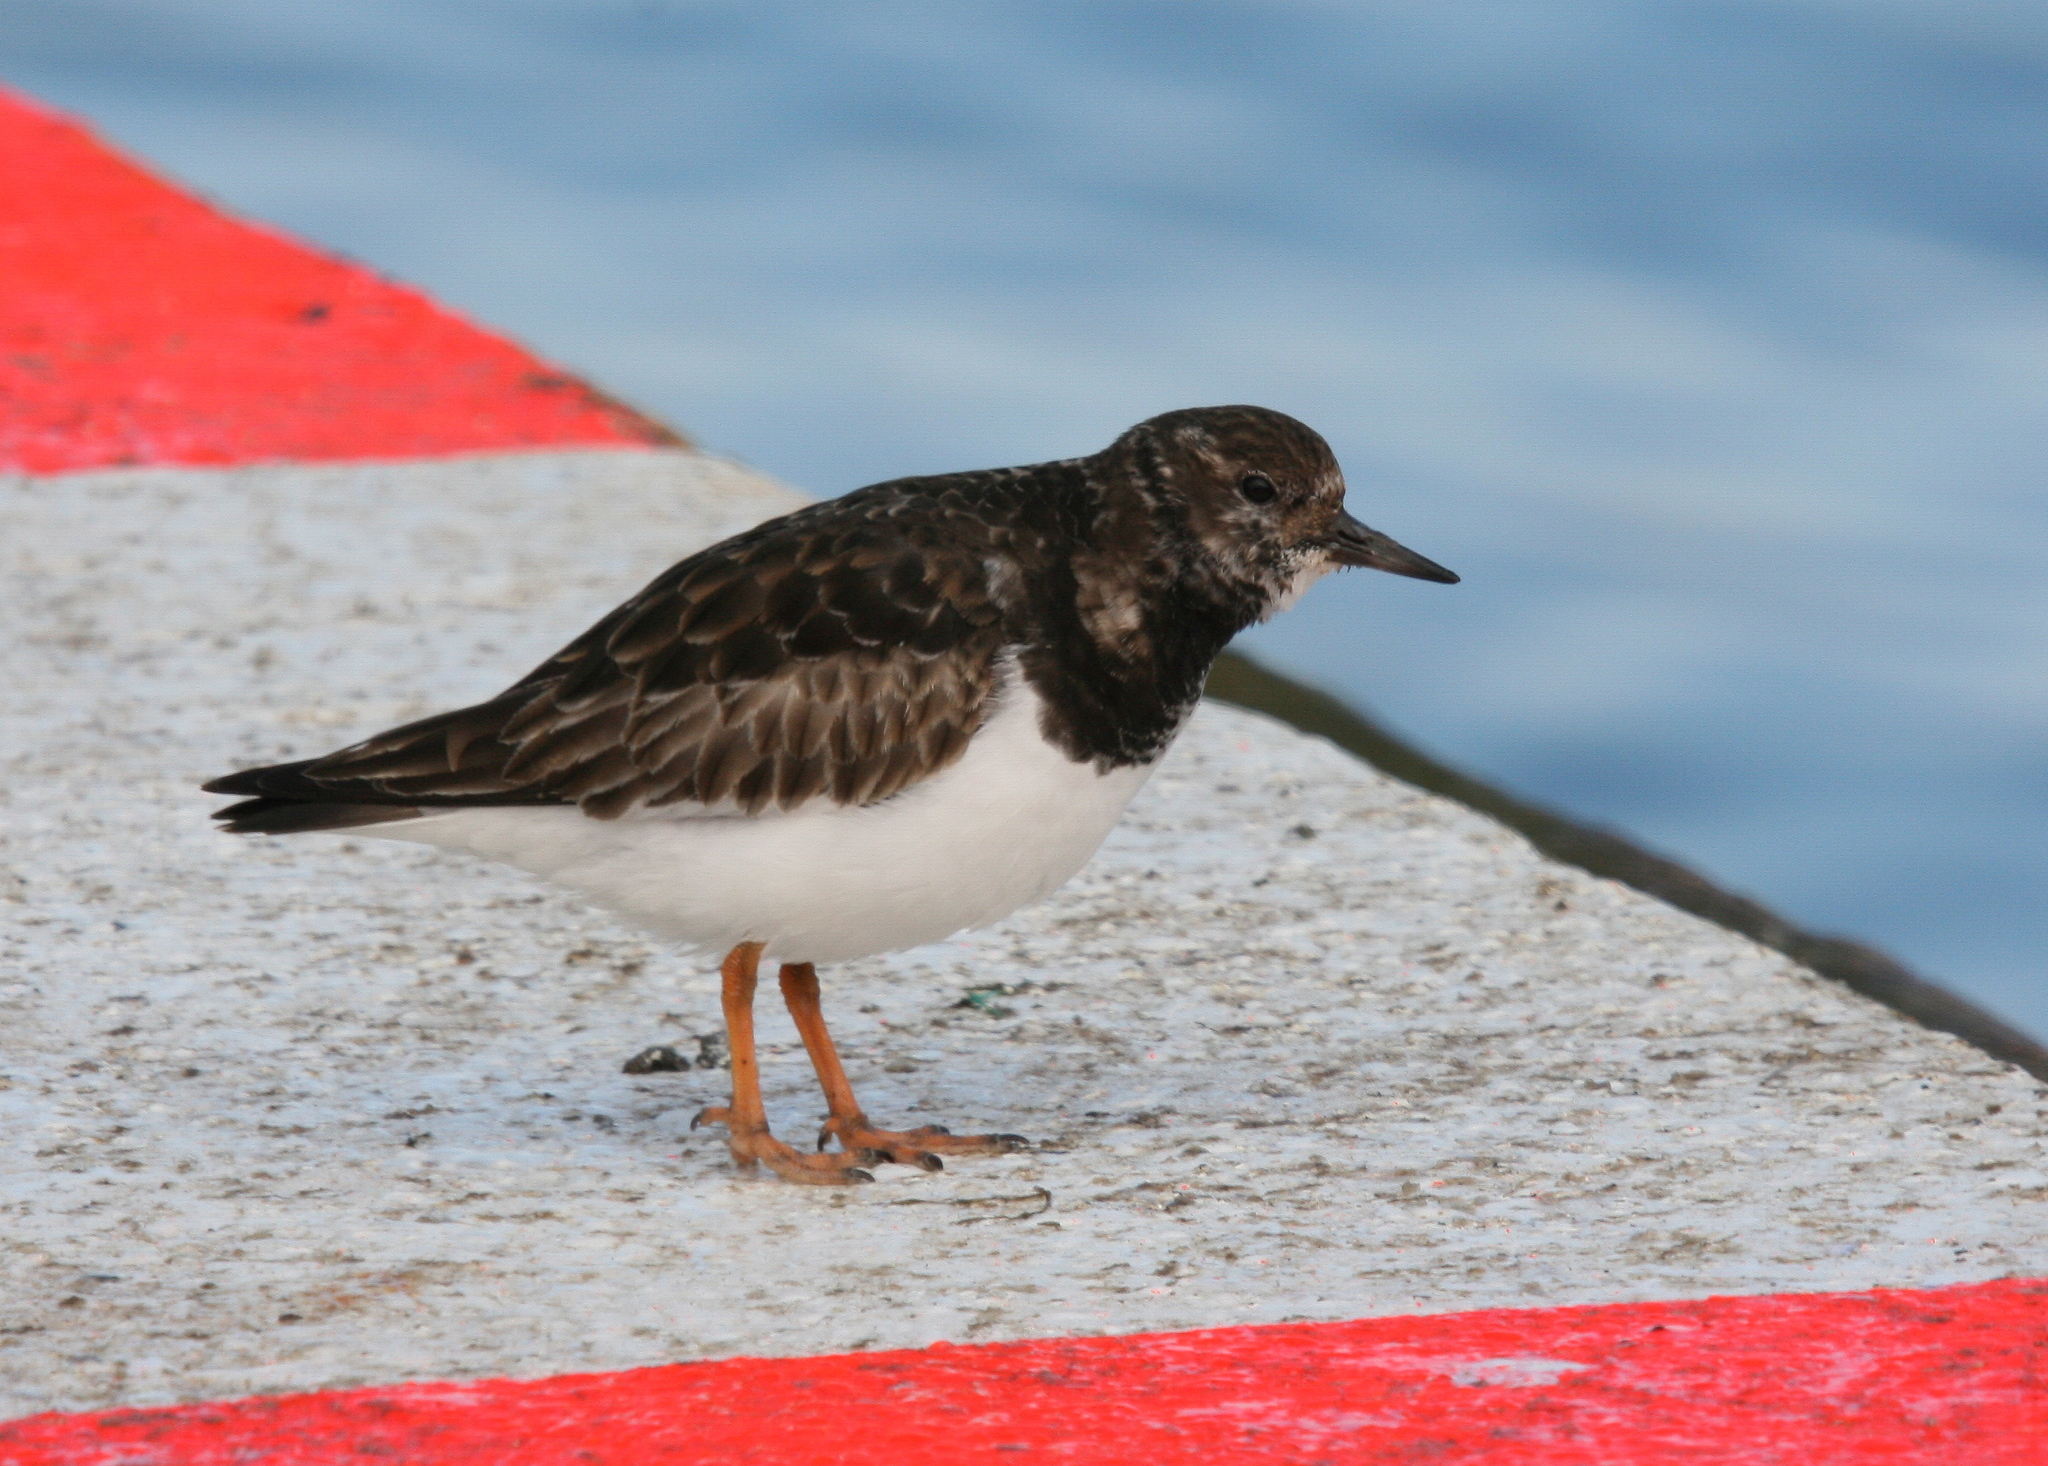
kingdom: Animalia
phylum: Chordata
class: Aves
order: Charadriiformes
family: Scolopacidae
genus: Arenaria
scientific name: Arenaria interpres
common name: Ruddy turnstone
